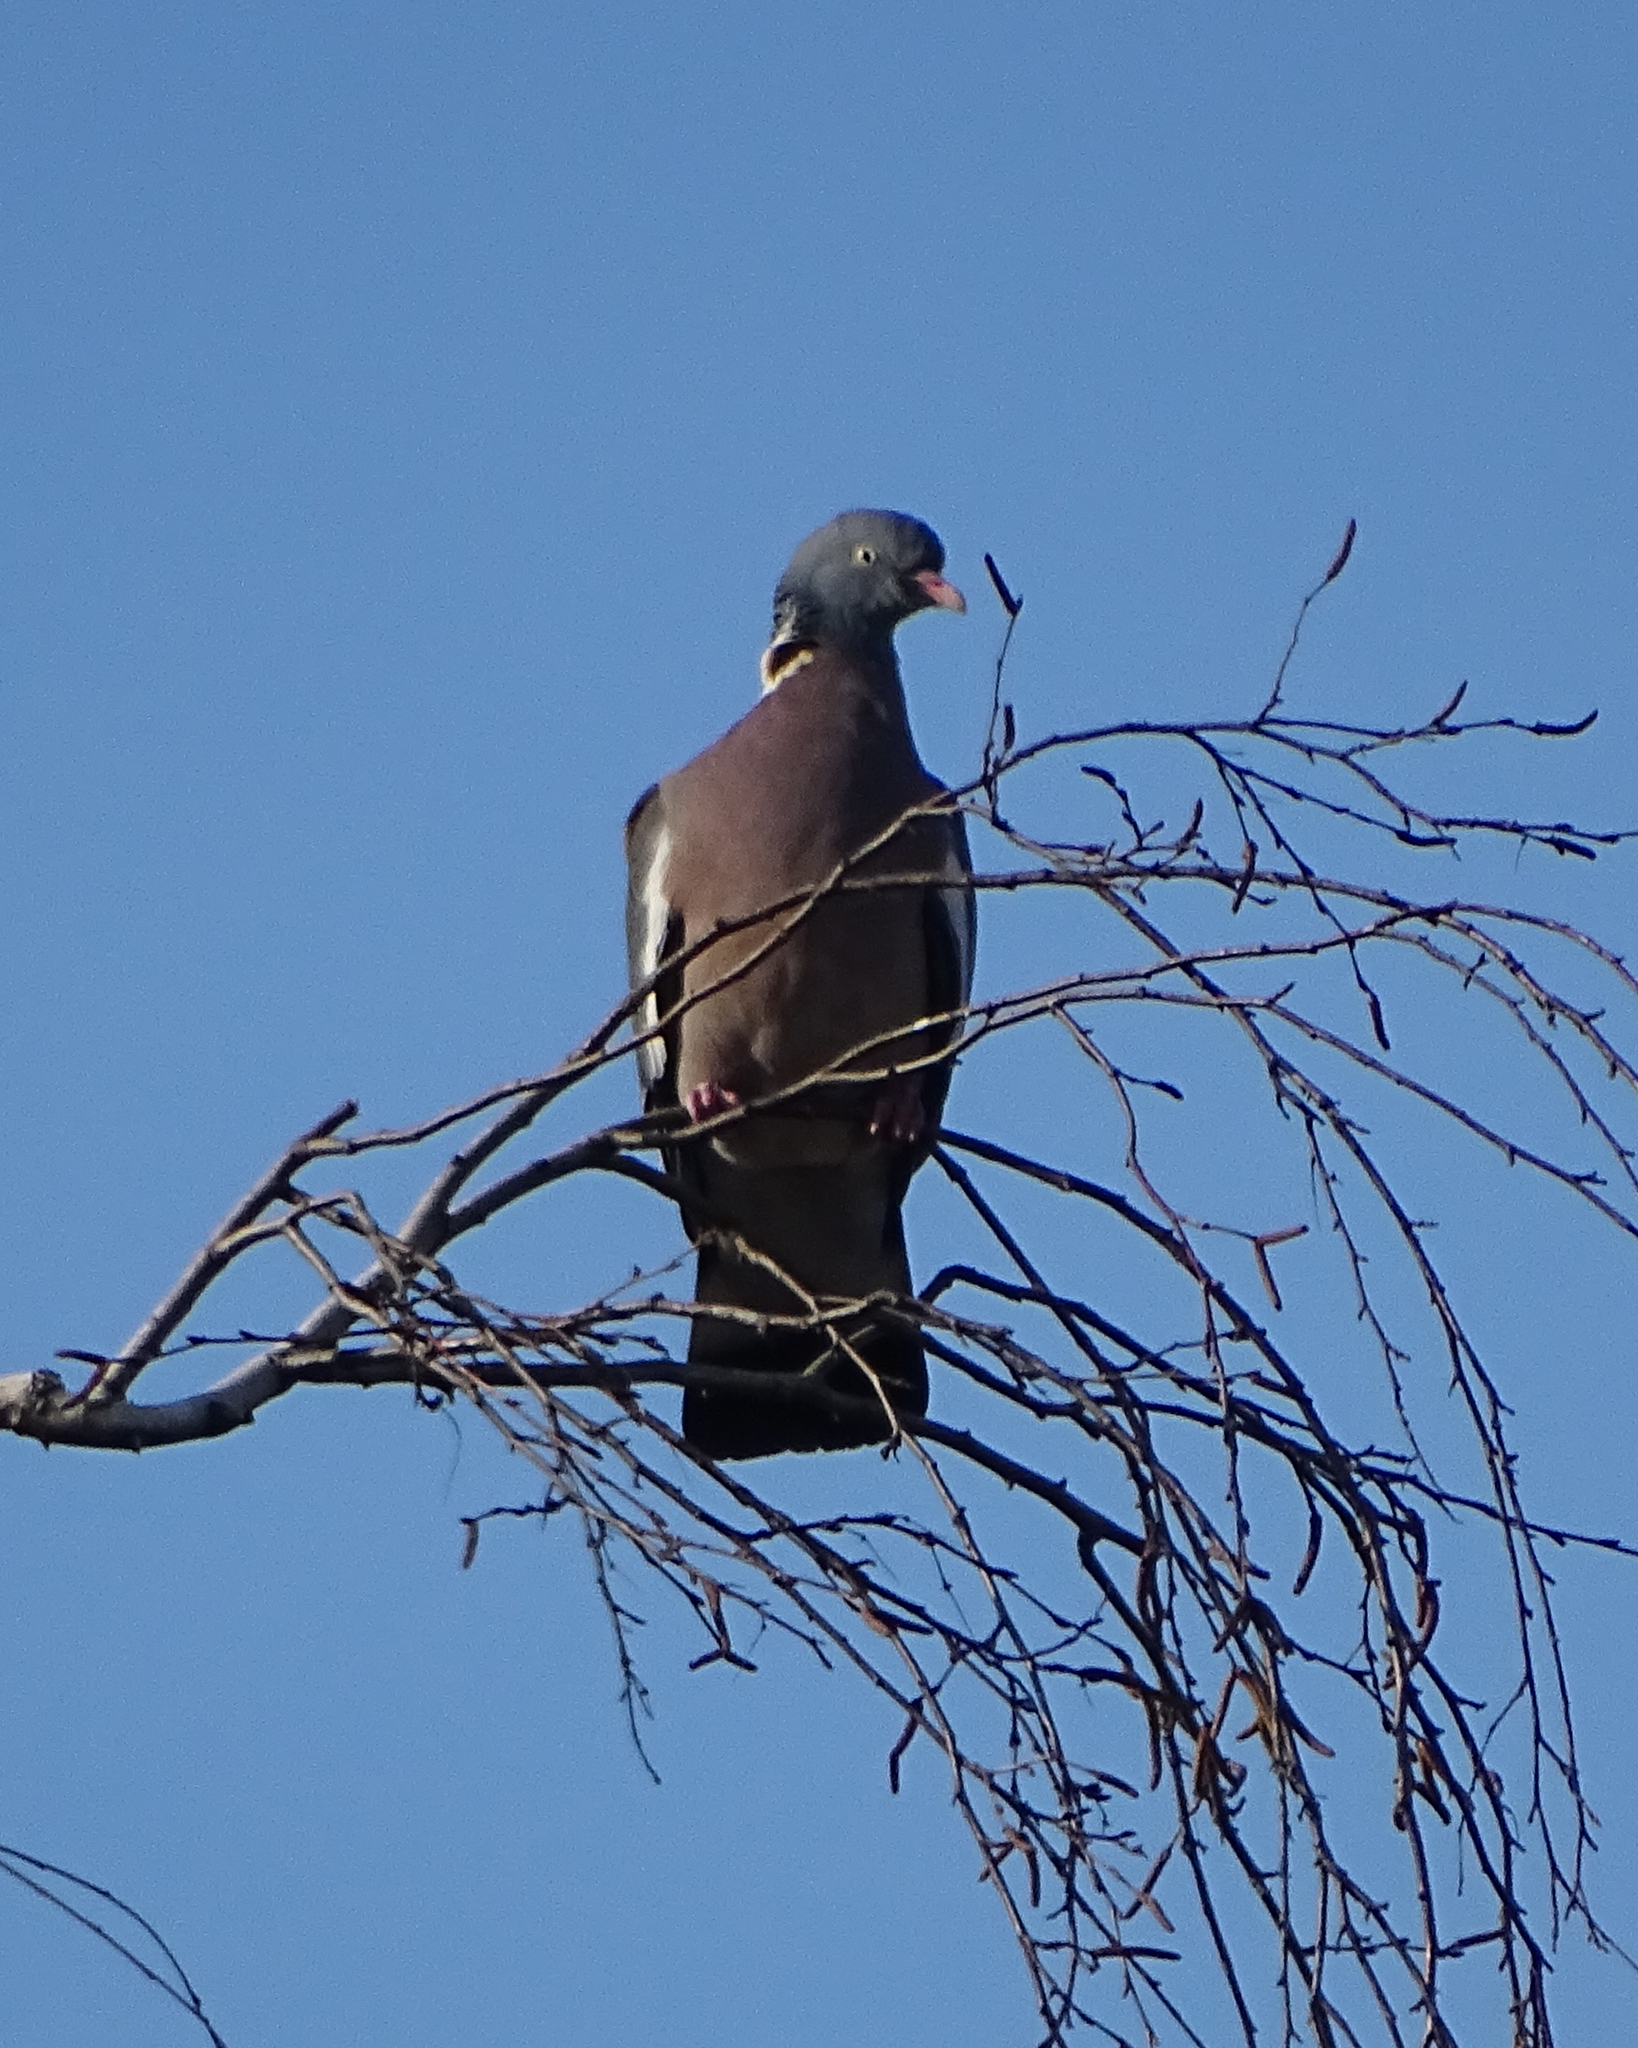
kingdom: Animalia
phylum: Chordata
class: Aves
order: Columbiformes
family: Columbidae
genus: Columba
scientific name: Columba palumbus
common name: Common wood pigeon
